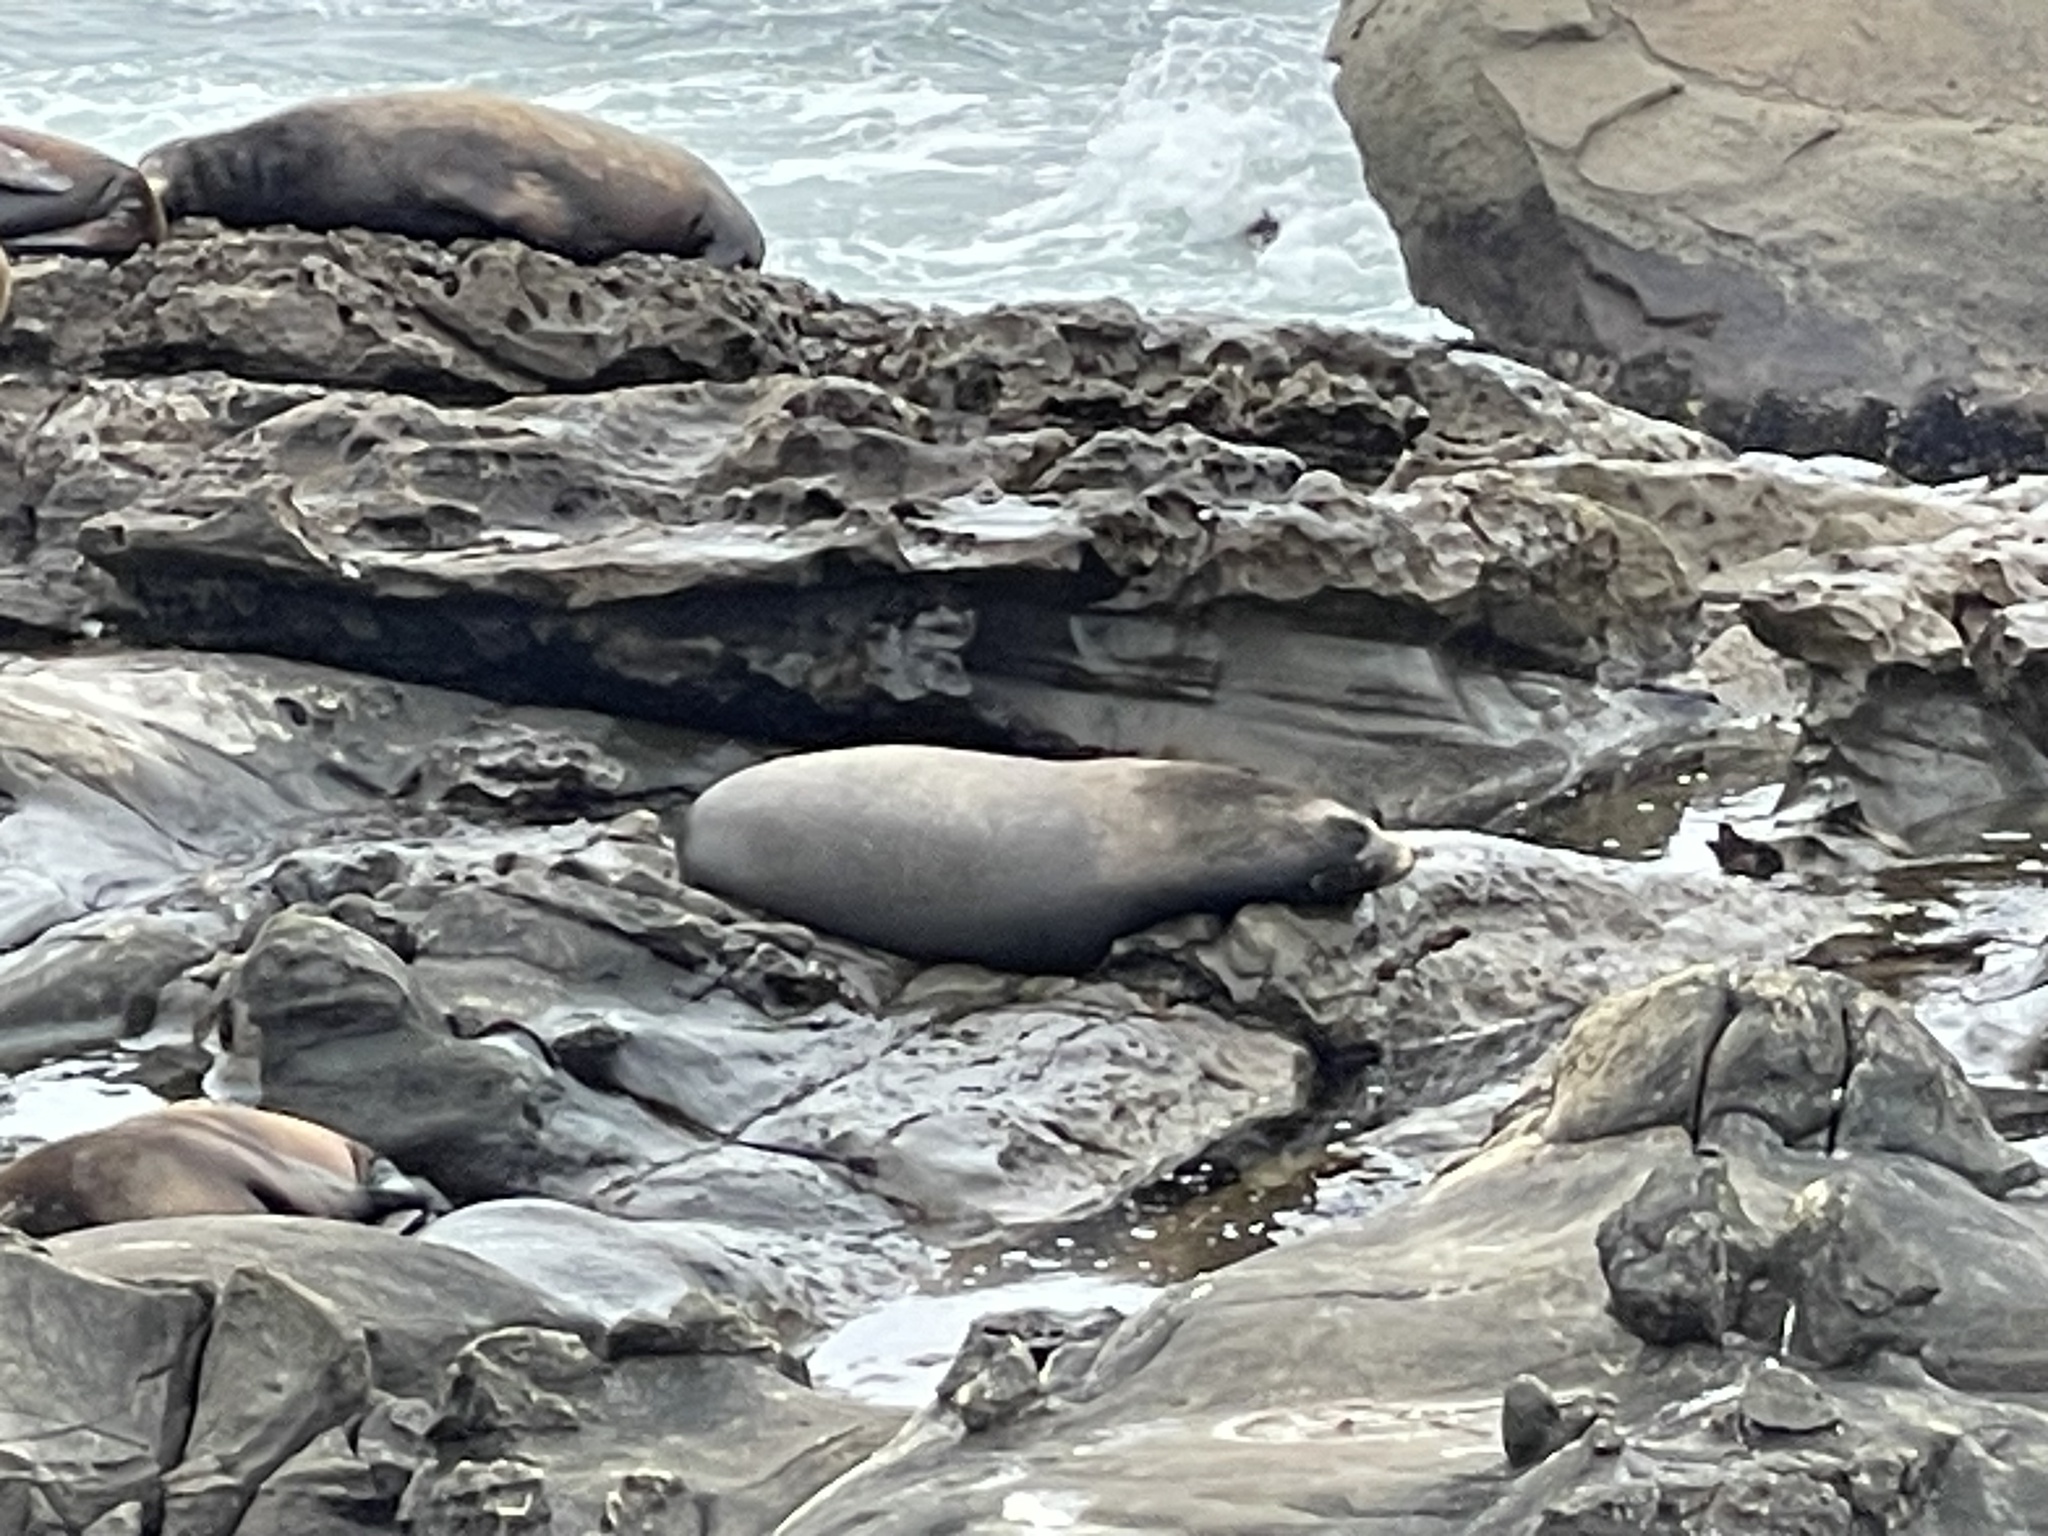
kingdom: Animalia
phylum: Chordata
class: Mammalia
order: Carnivora
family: Otariidae
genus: Zalophus
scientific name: Zalophus californianus
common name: California sea lion
